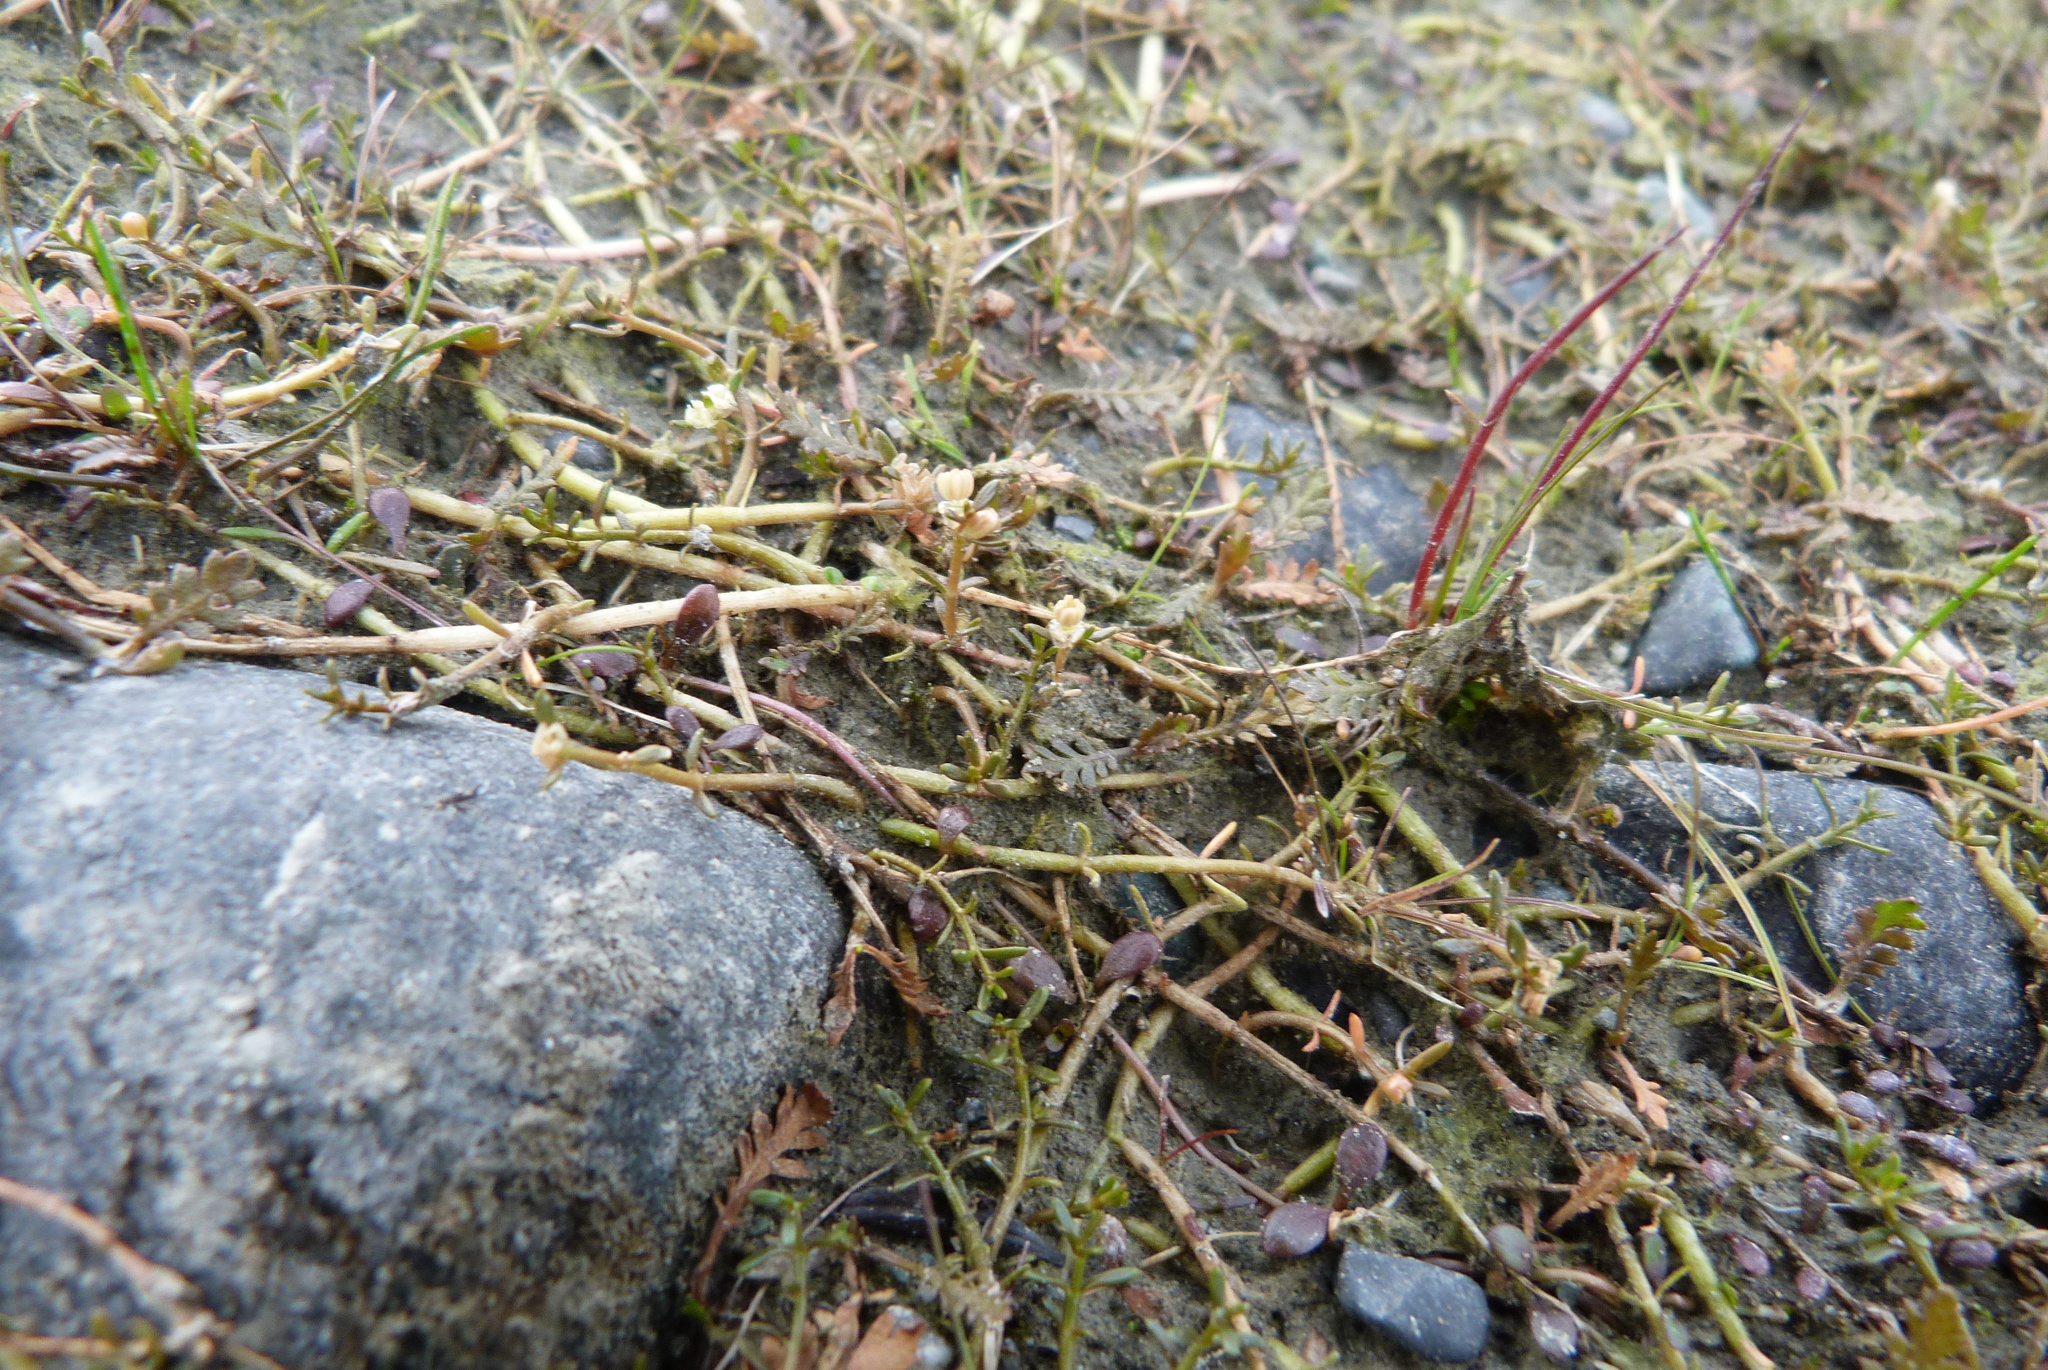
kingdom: Plantae
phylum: Tracheophyta
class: Magnoliopsida
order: Saxifragales
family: Haloragaceae
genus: Myriophyllum
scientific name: Myriophyllum pedunculatum
